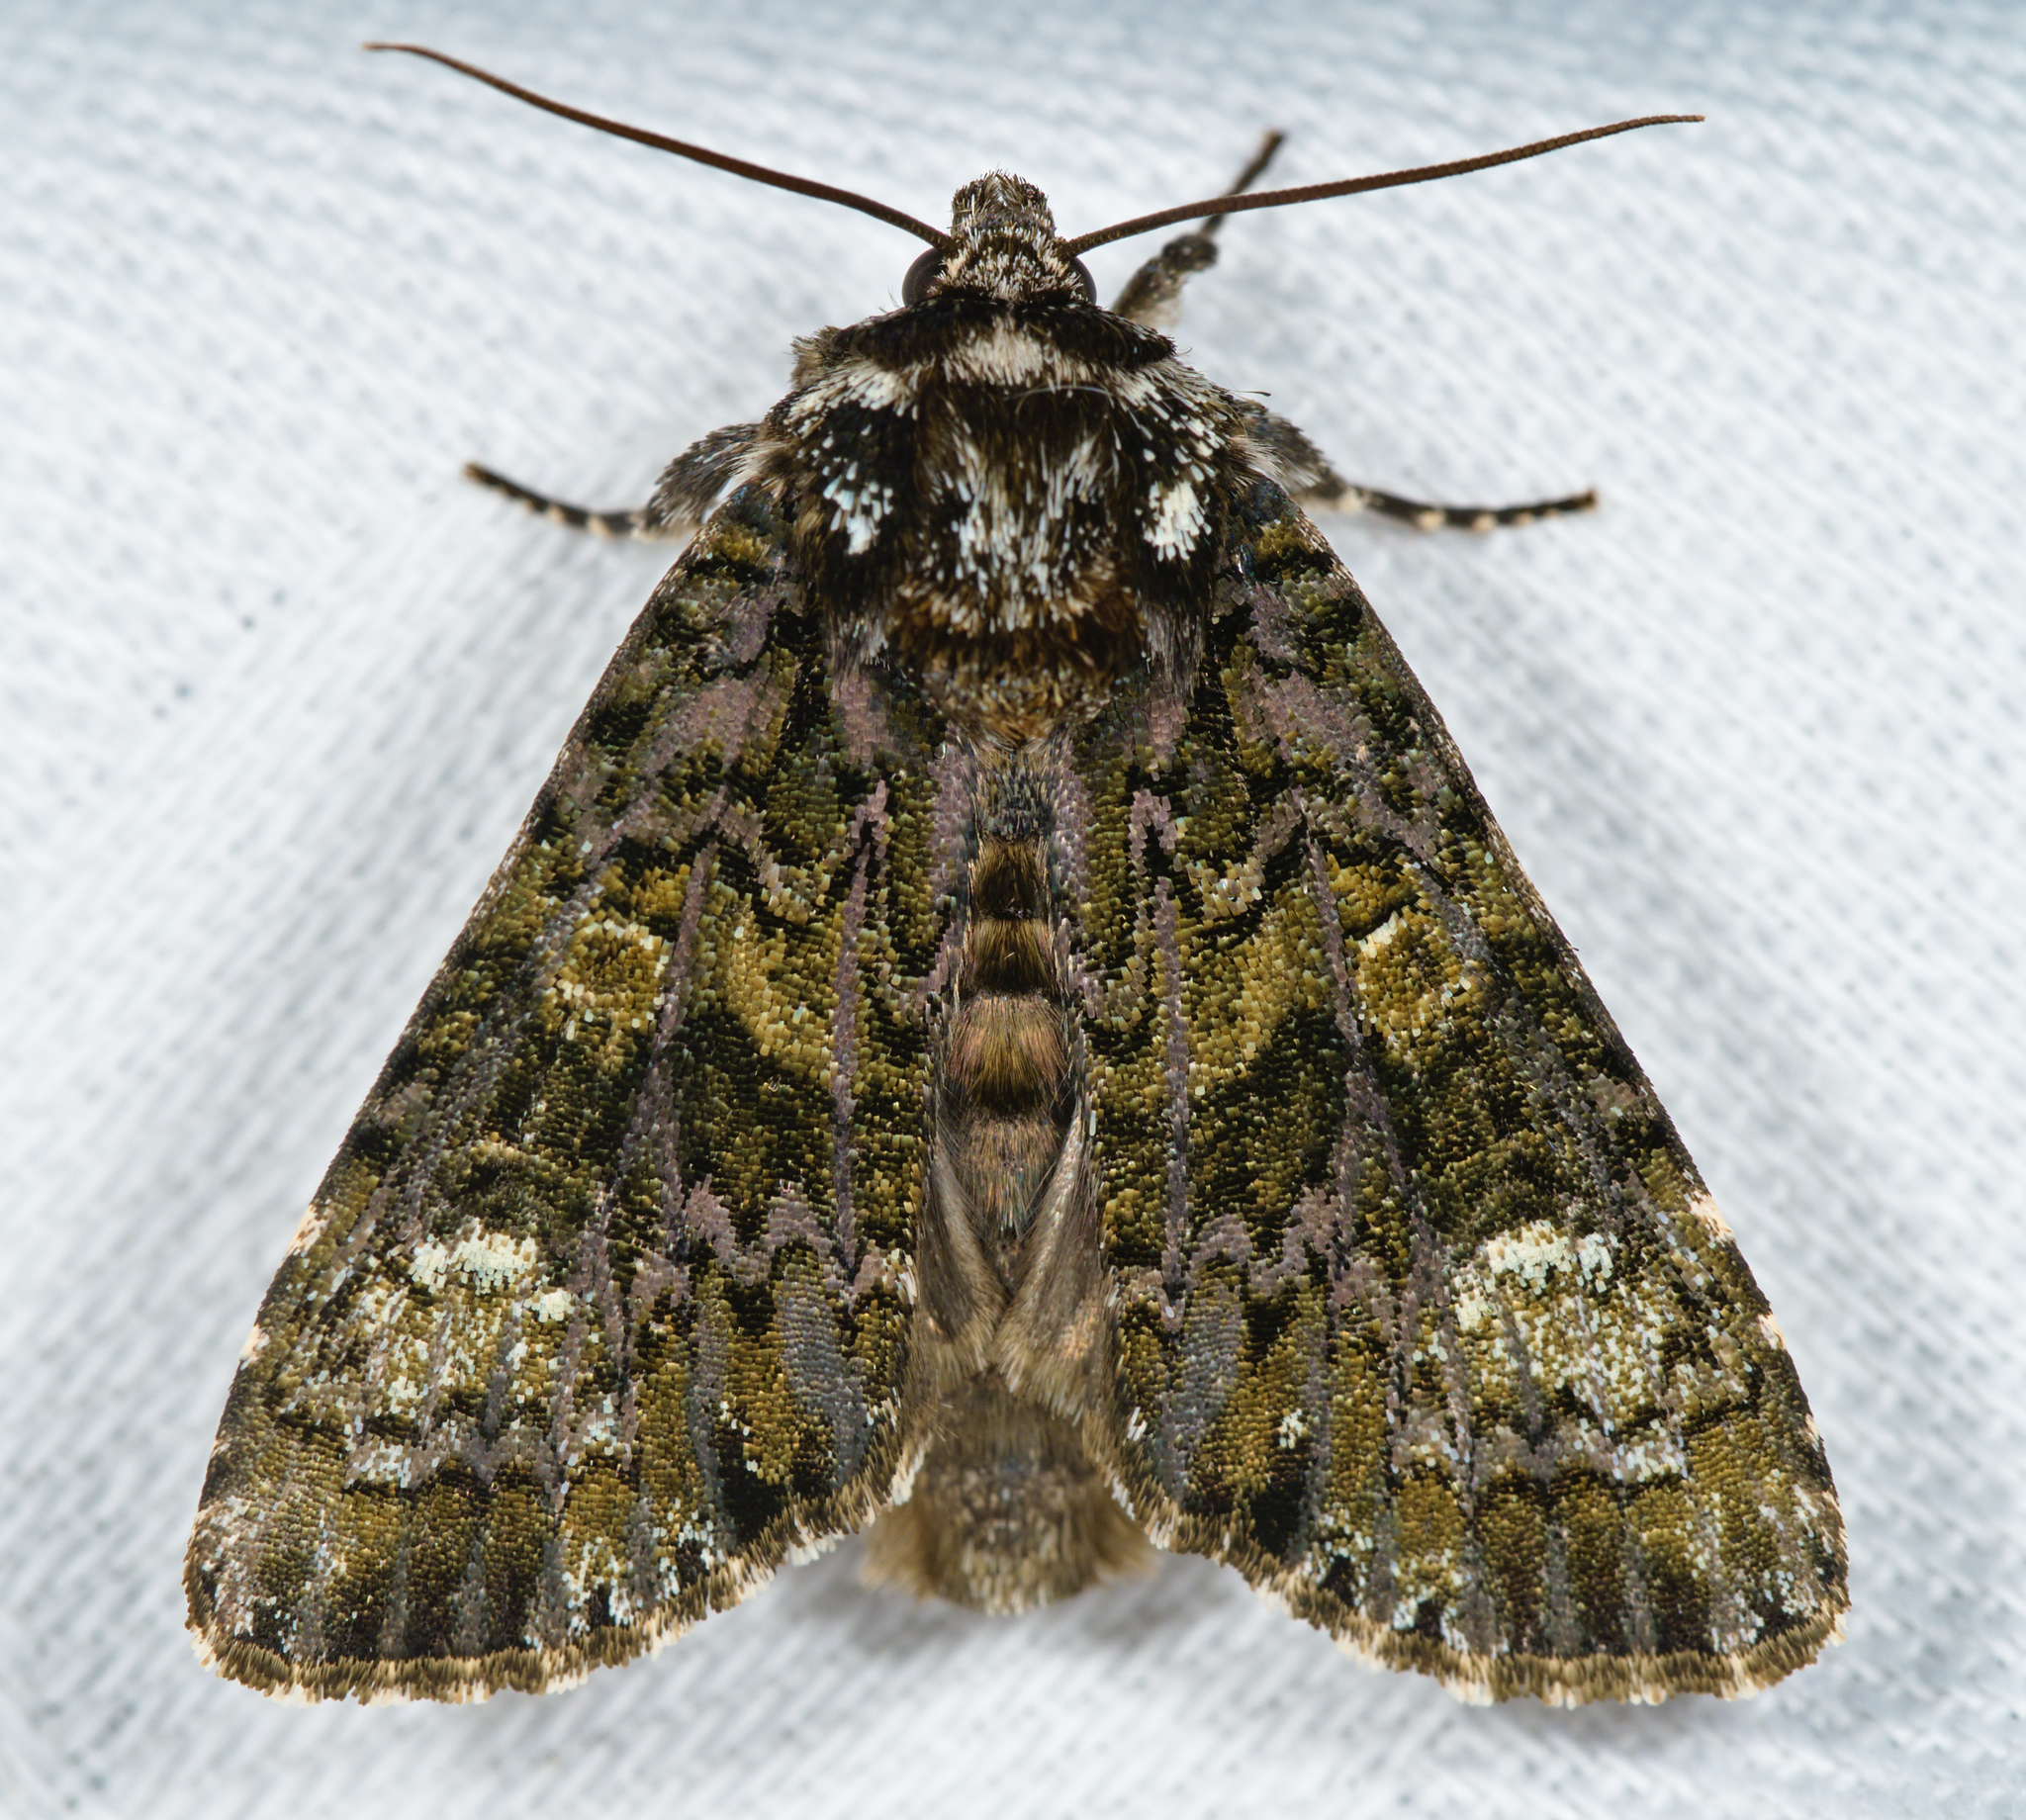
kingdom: Animalia
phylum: Arthropoda
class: Insecta
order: Lepidoptera
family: Noctuidae
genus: Craniophora
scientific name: Craniophora ligustri
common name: Coronet
